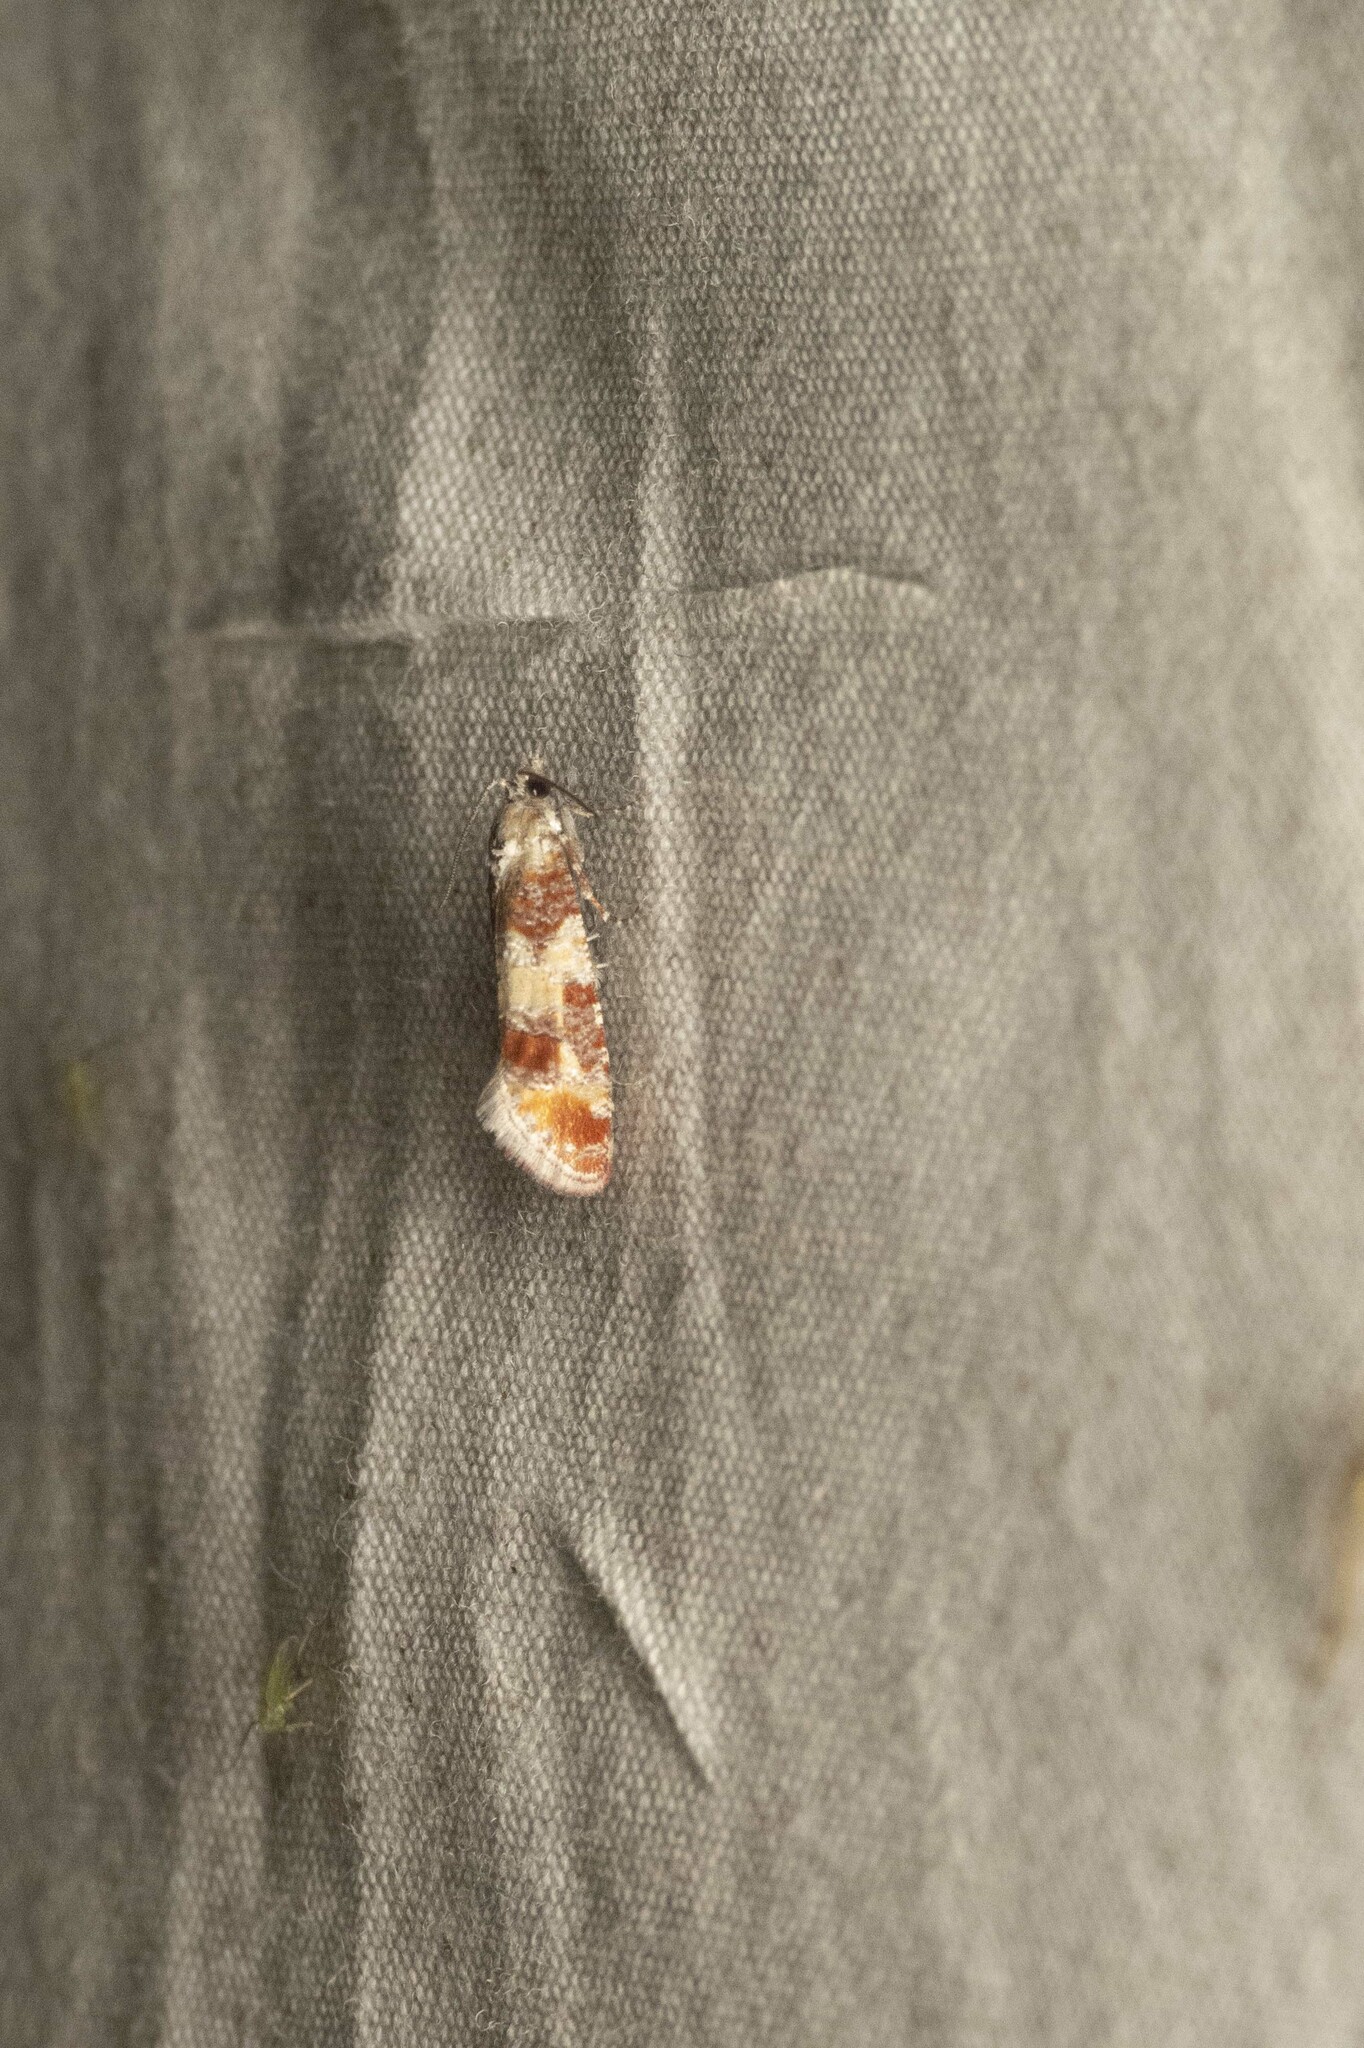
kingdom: Animalia
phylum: Arthropoda
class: Insecta
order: Lepidoptera
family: Tortricidae
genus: Rhyacionia
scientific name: Rhyacionia rigidana
